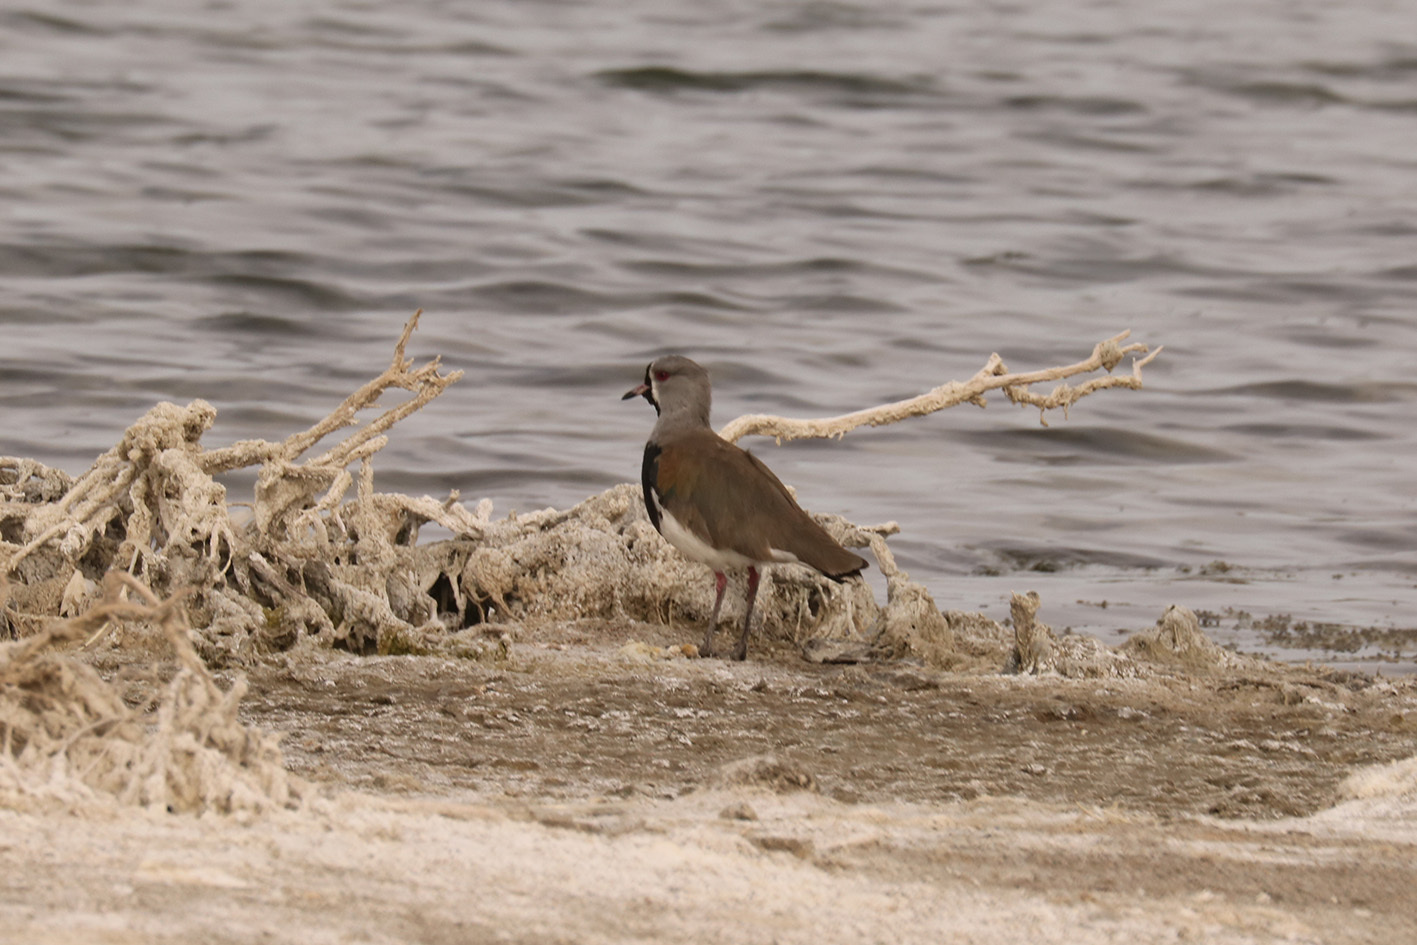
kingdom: Animalia
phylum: Chordata
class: Aves
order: Charadriiformes
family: Charadriidae
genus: Vanellus
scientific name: Vanellus chilensis
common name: Southern lapwing
